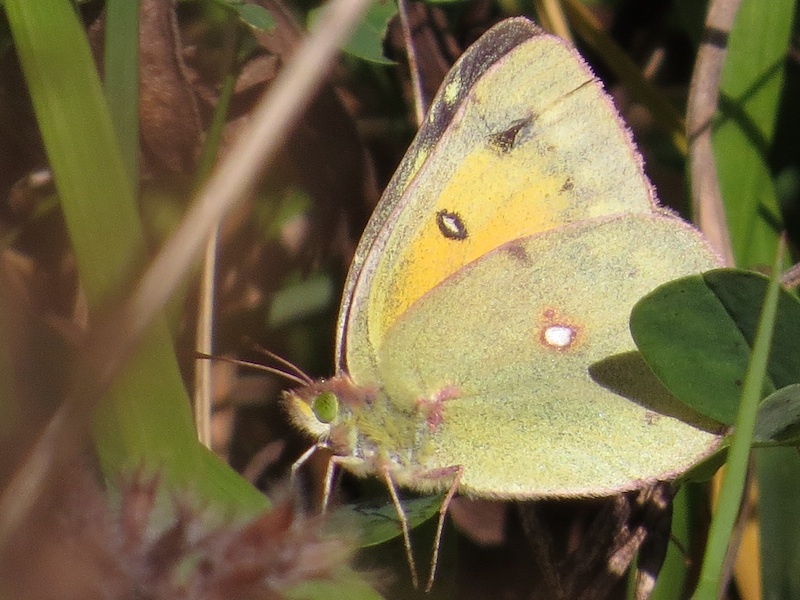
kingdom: Animalia
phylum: Arthropoda
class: Insecta
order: Lepidoptera
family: Pieridae
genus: Colias
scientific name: Colias eurytheme
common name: Alfalfa butterfly
